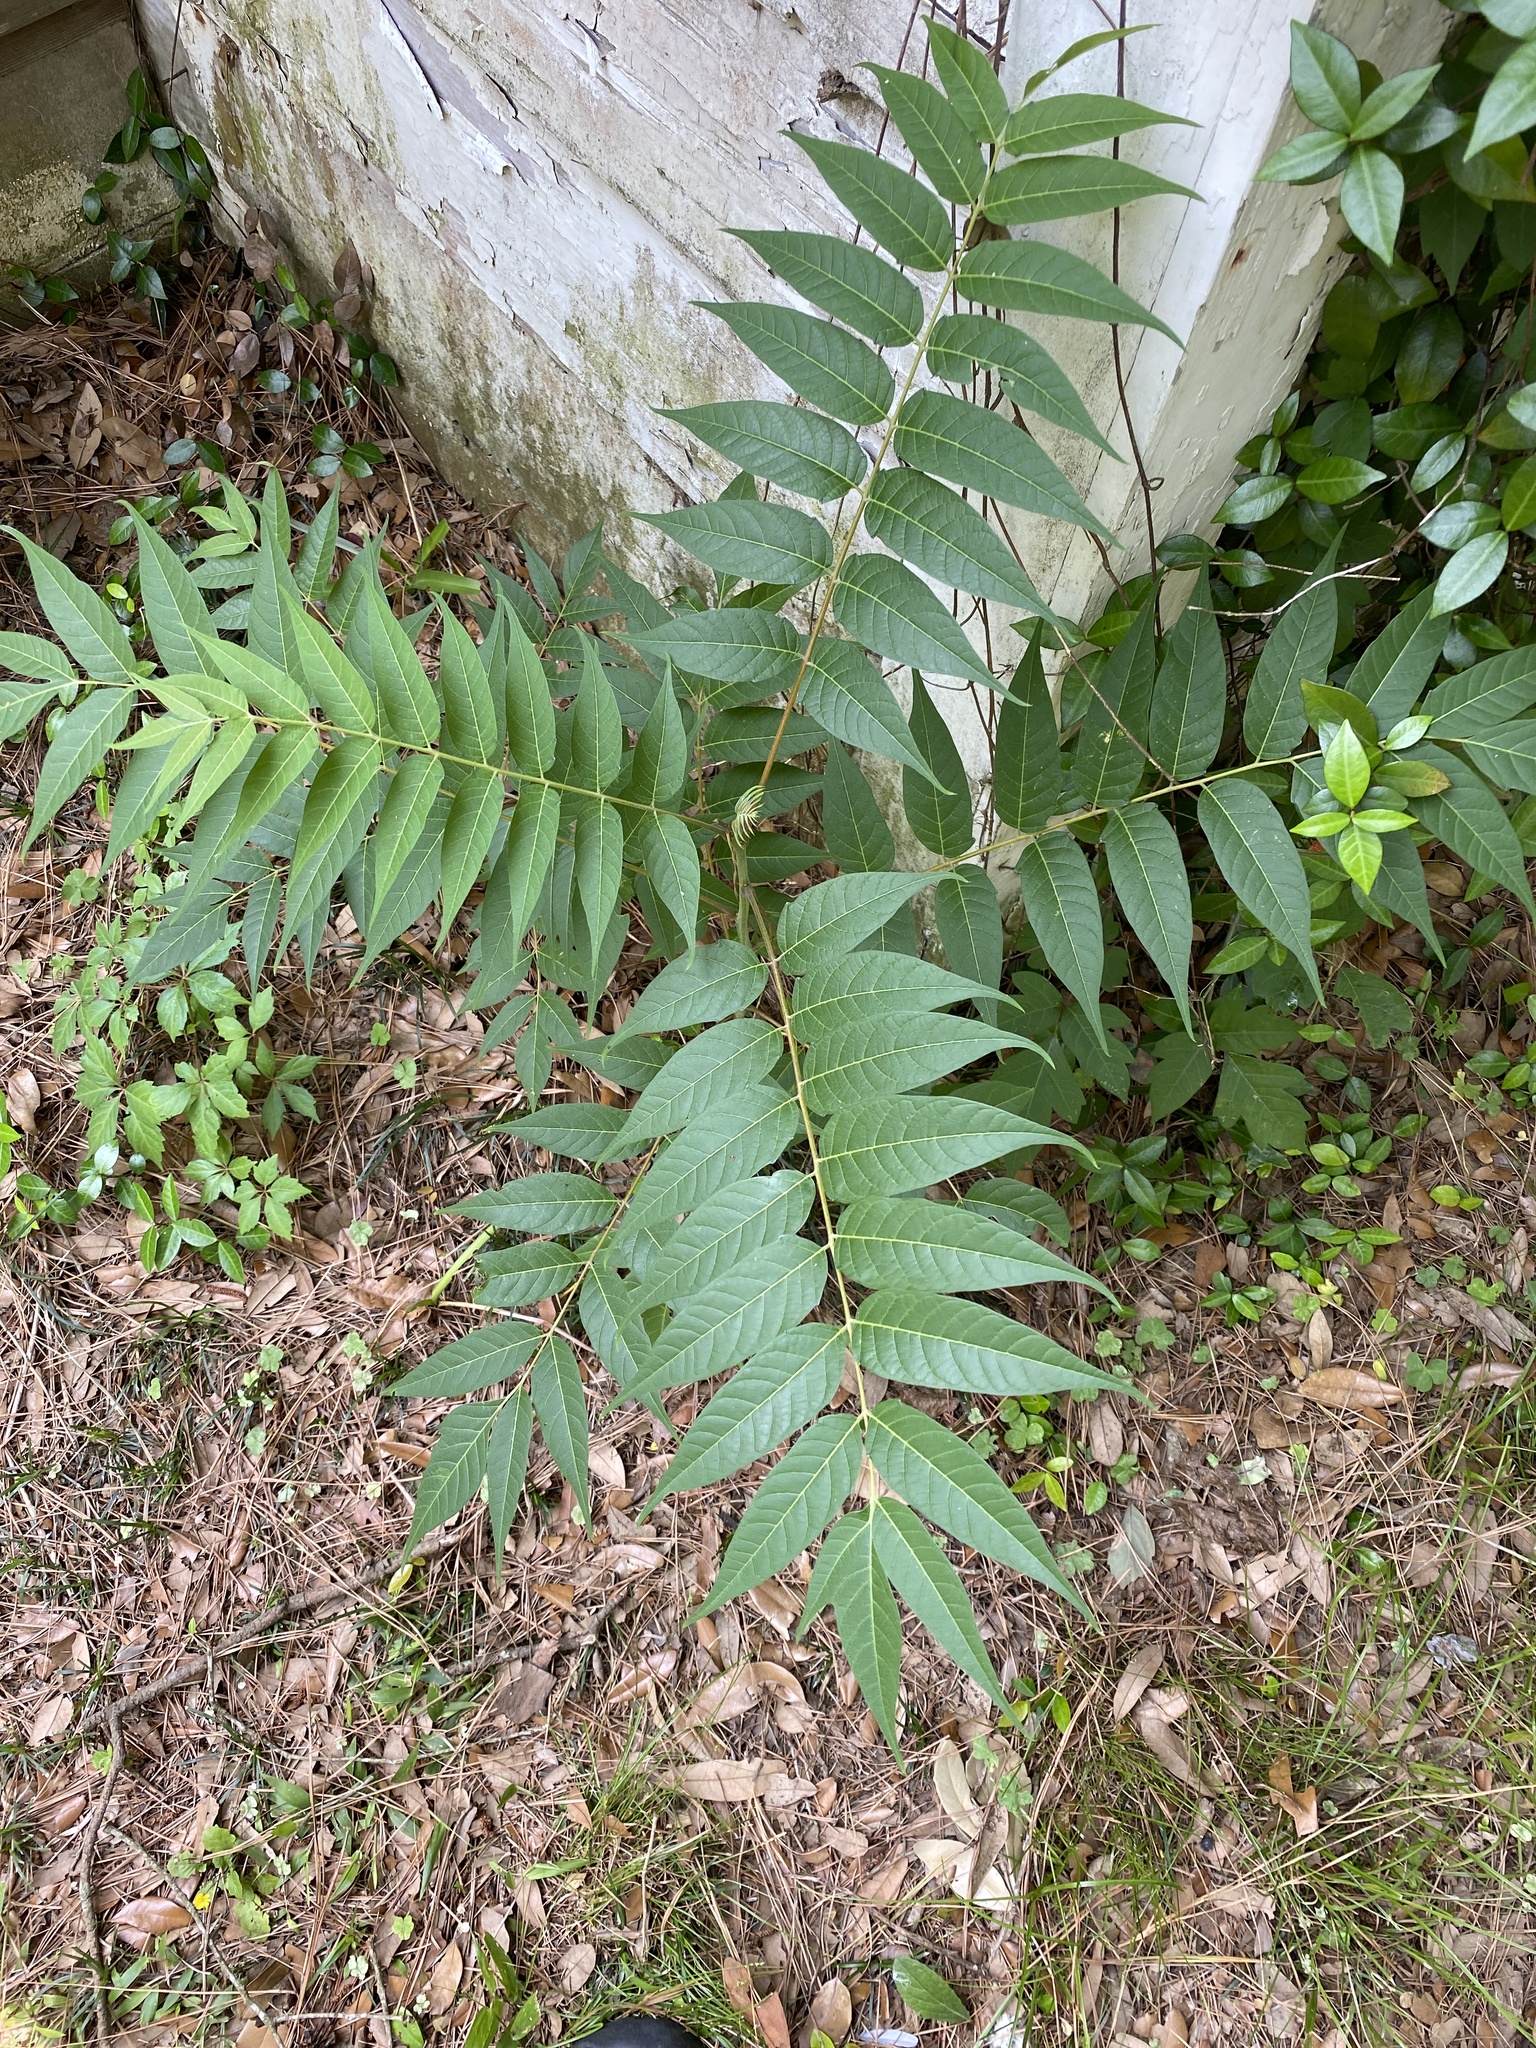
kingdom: Plantae
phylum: Tracheophyta
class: Magnoliopsida
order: Sapindales
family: Simaroubaceae
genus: Ailanthus
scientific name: Ailanthus altissima
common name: Tree-of-heaven
